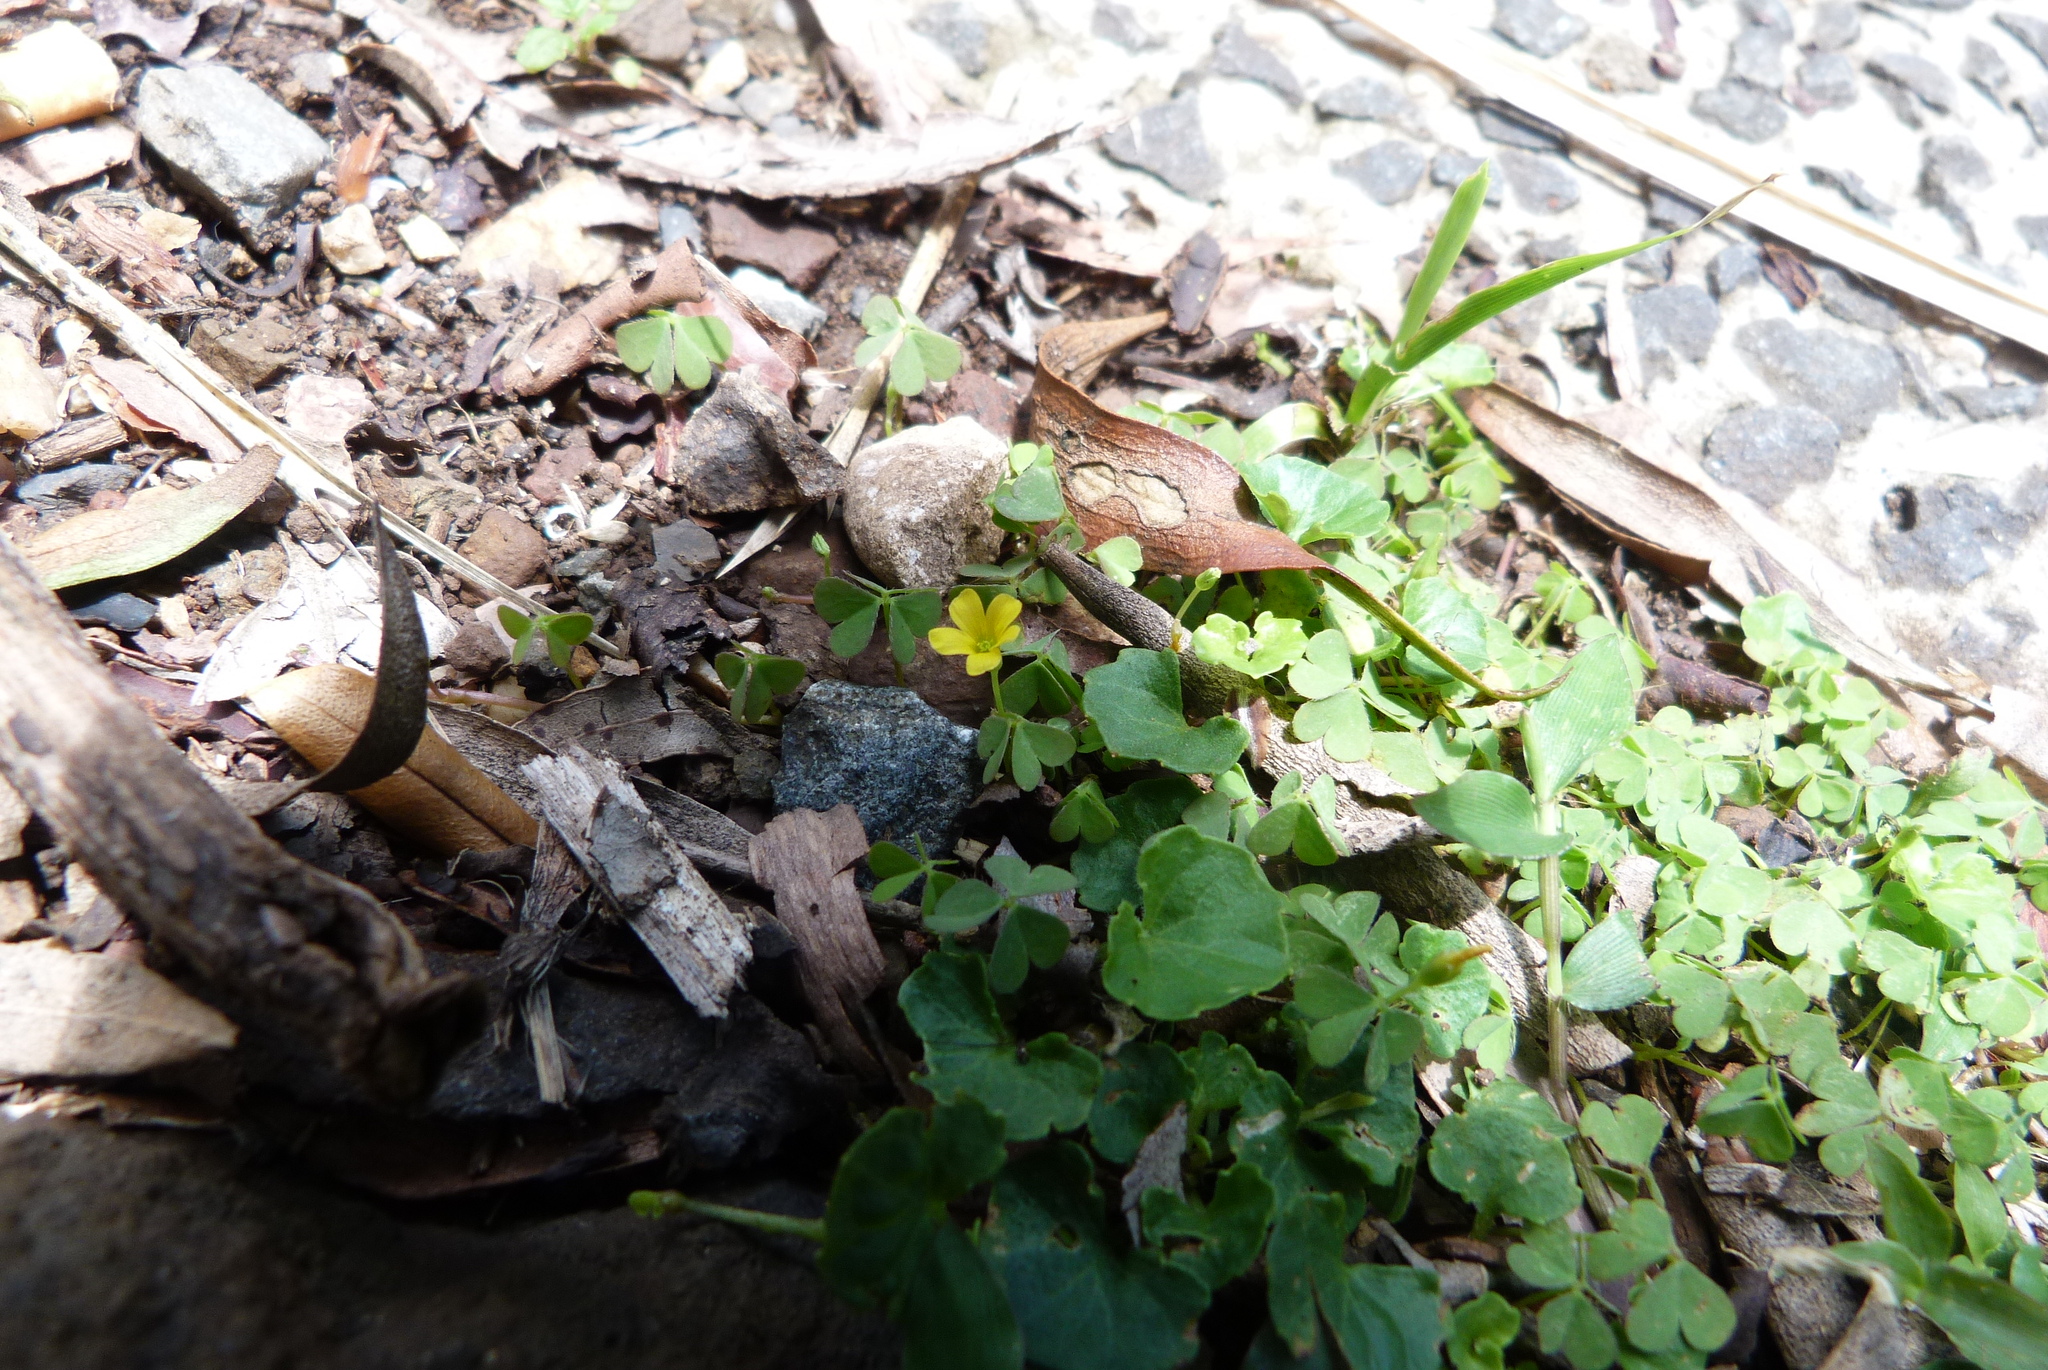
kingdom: Plantae
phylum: Tracheophyta
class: Magnoliopsida
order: Oxalidales
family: Oxalidaceae
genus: Oxalis
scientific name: Oxalis corniculata
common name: Procumbent yellow-sorrel
